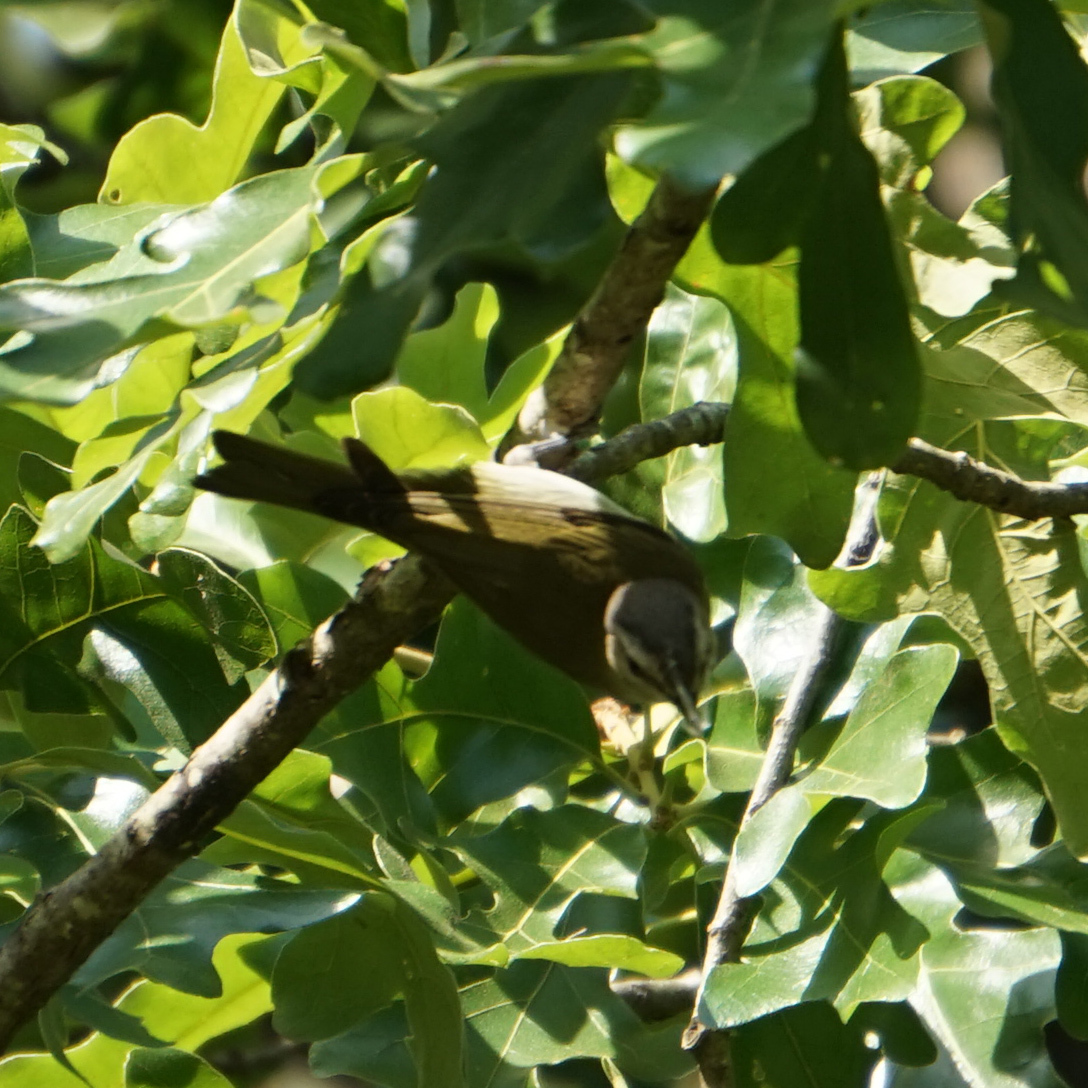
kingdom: Animalia
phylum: Chordata
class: Aves
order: Passeriformes
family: Vireonidae
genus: Vireo
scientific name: Vireo olivaceus
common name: Red-eyed vireo
